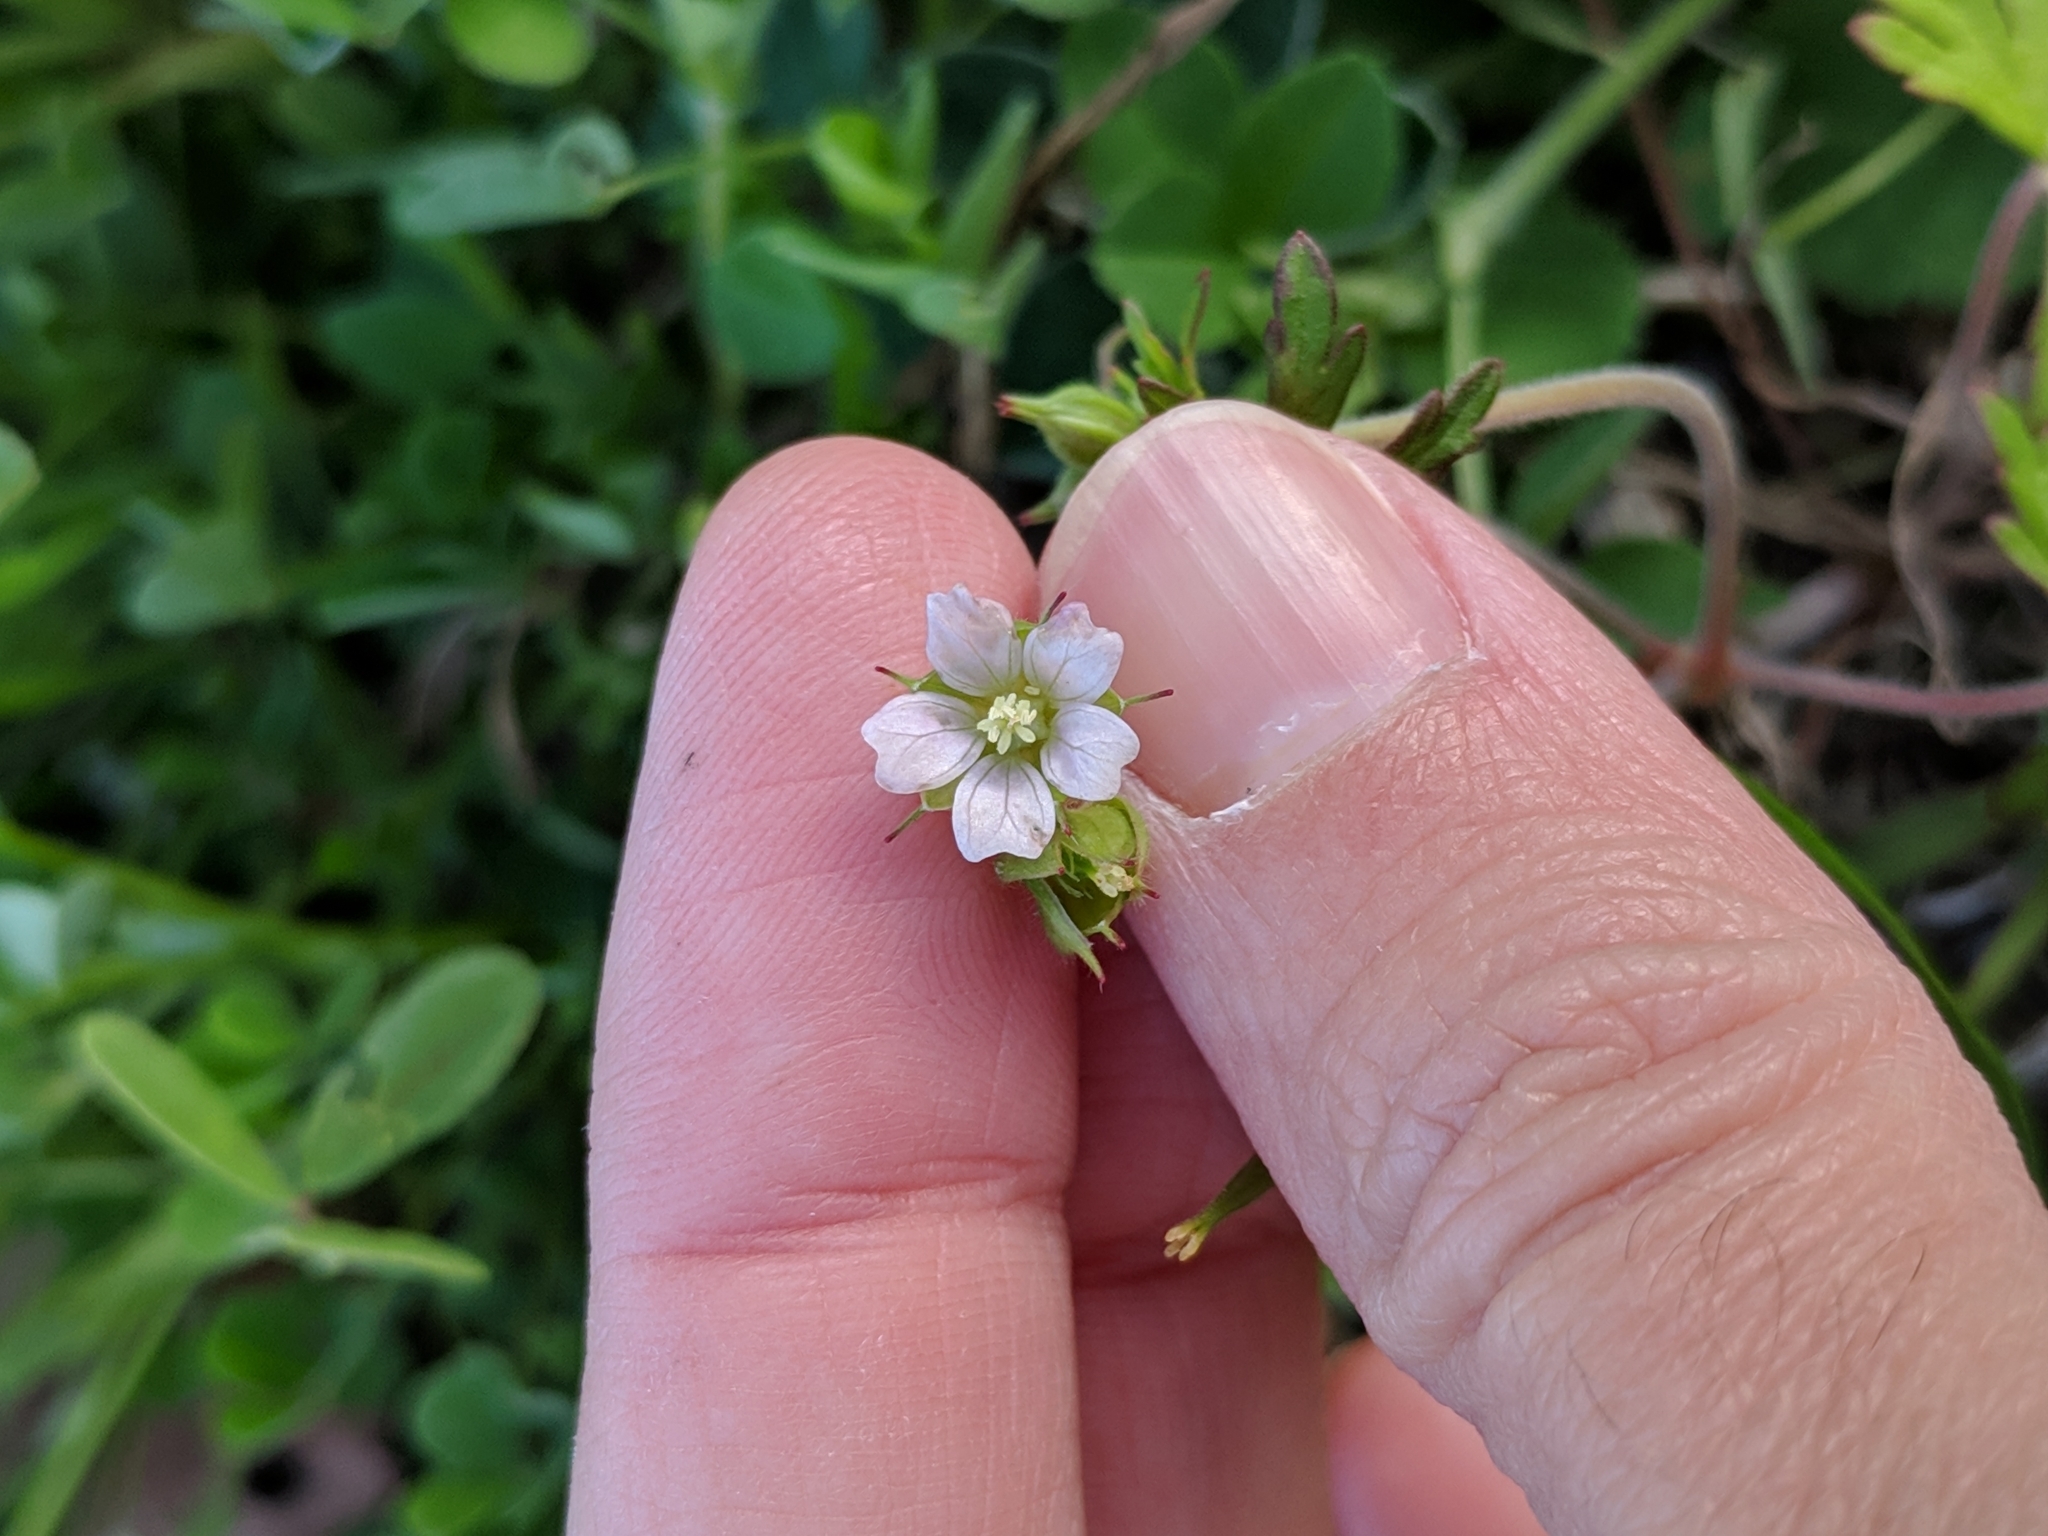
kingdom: Plantae
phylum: Tracheophyta
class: Magnoliopsida
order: Geraniales
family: Geraniaceae
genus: Geranium
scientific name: Geranium carolinianum
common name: Carolina crane's-bill
